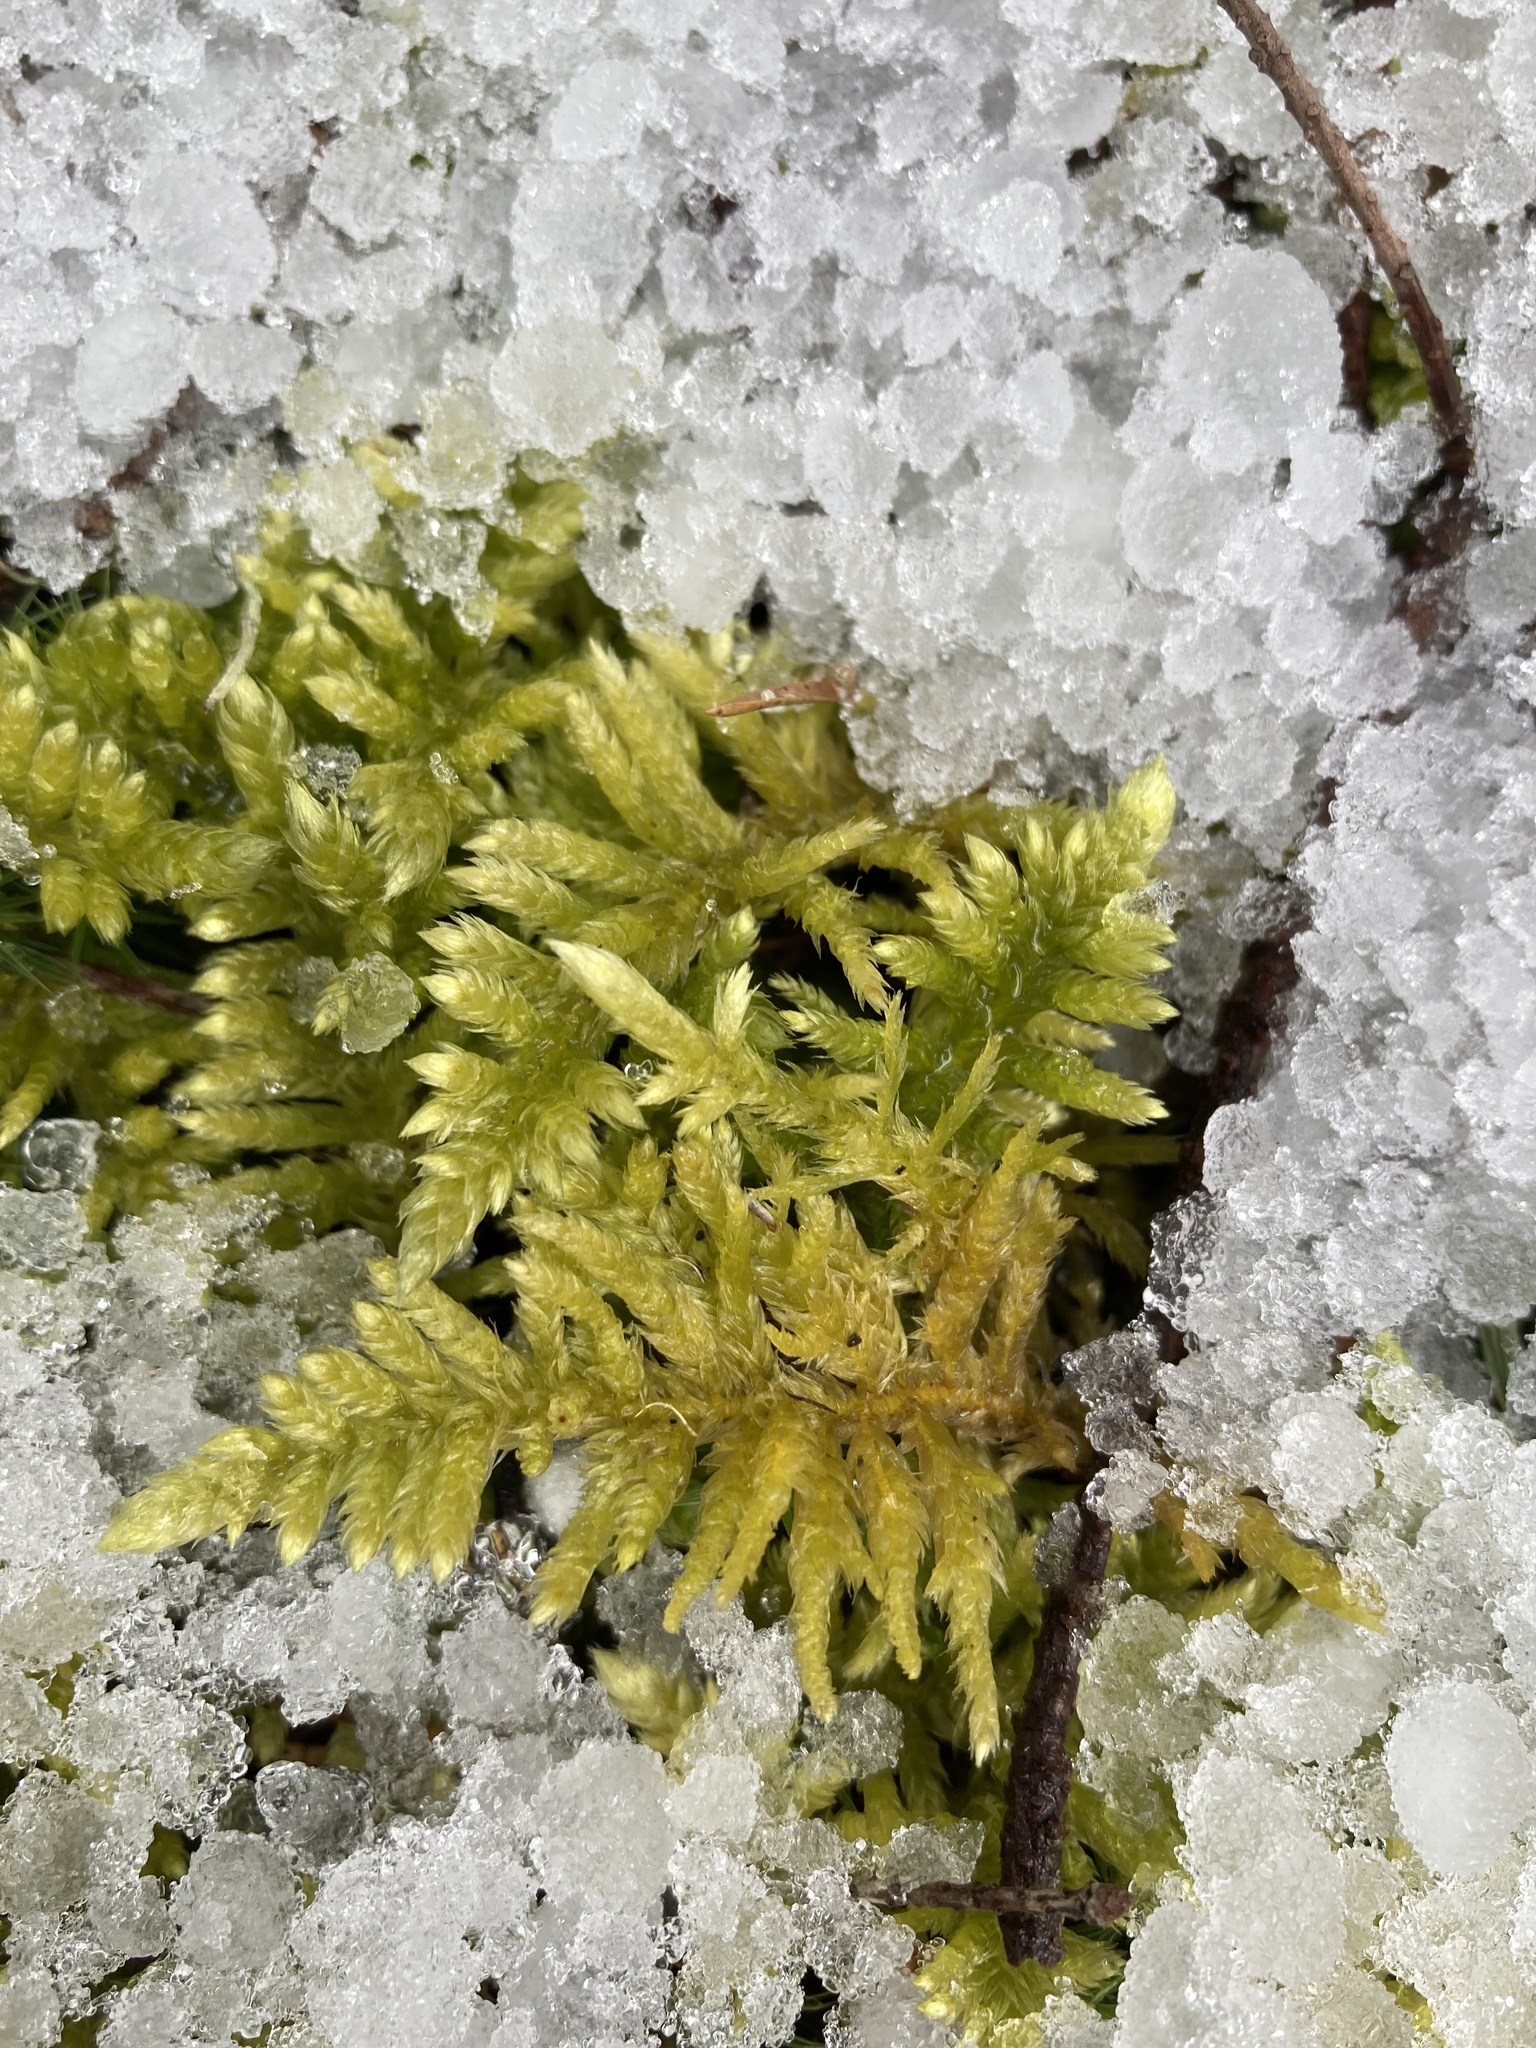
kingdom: Plantae
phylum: Bryophyta
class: Bryopsida
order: Hypnales
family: Brachytheciaceae
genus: Homalothecium
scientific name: Homalothecium megaptilum
